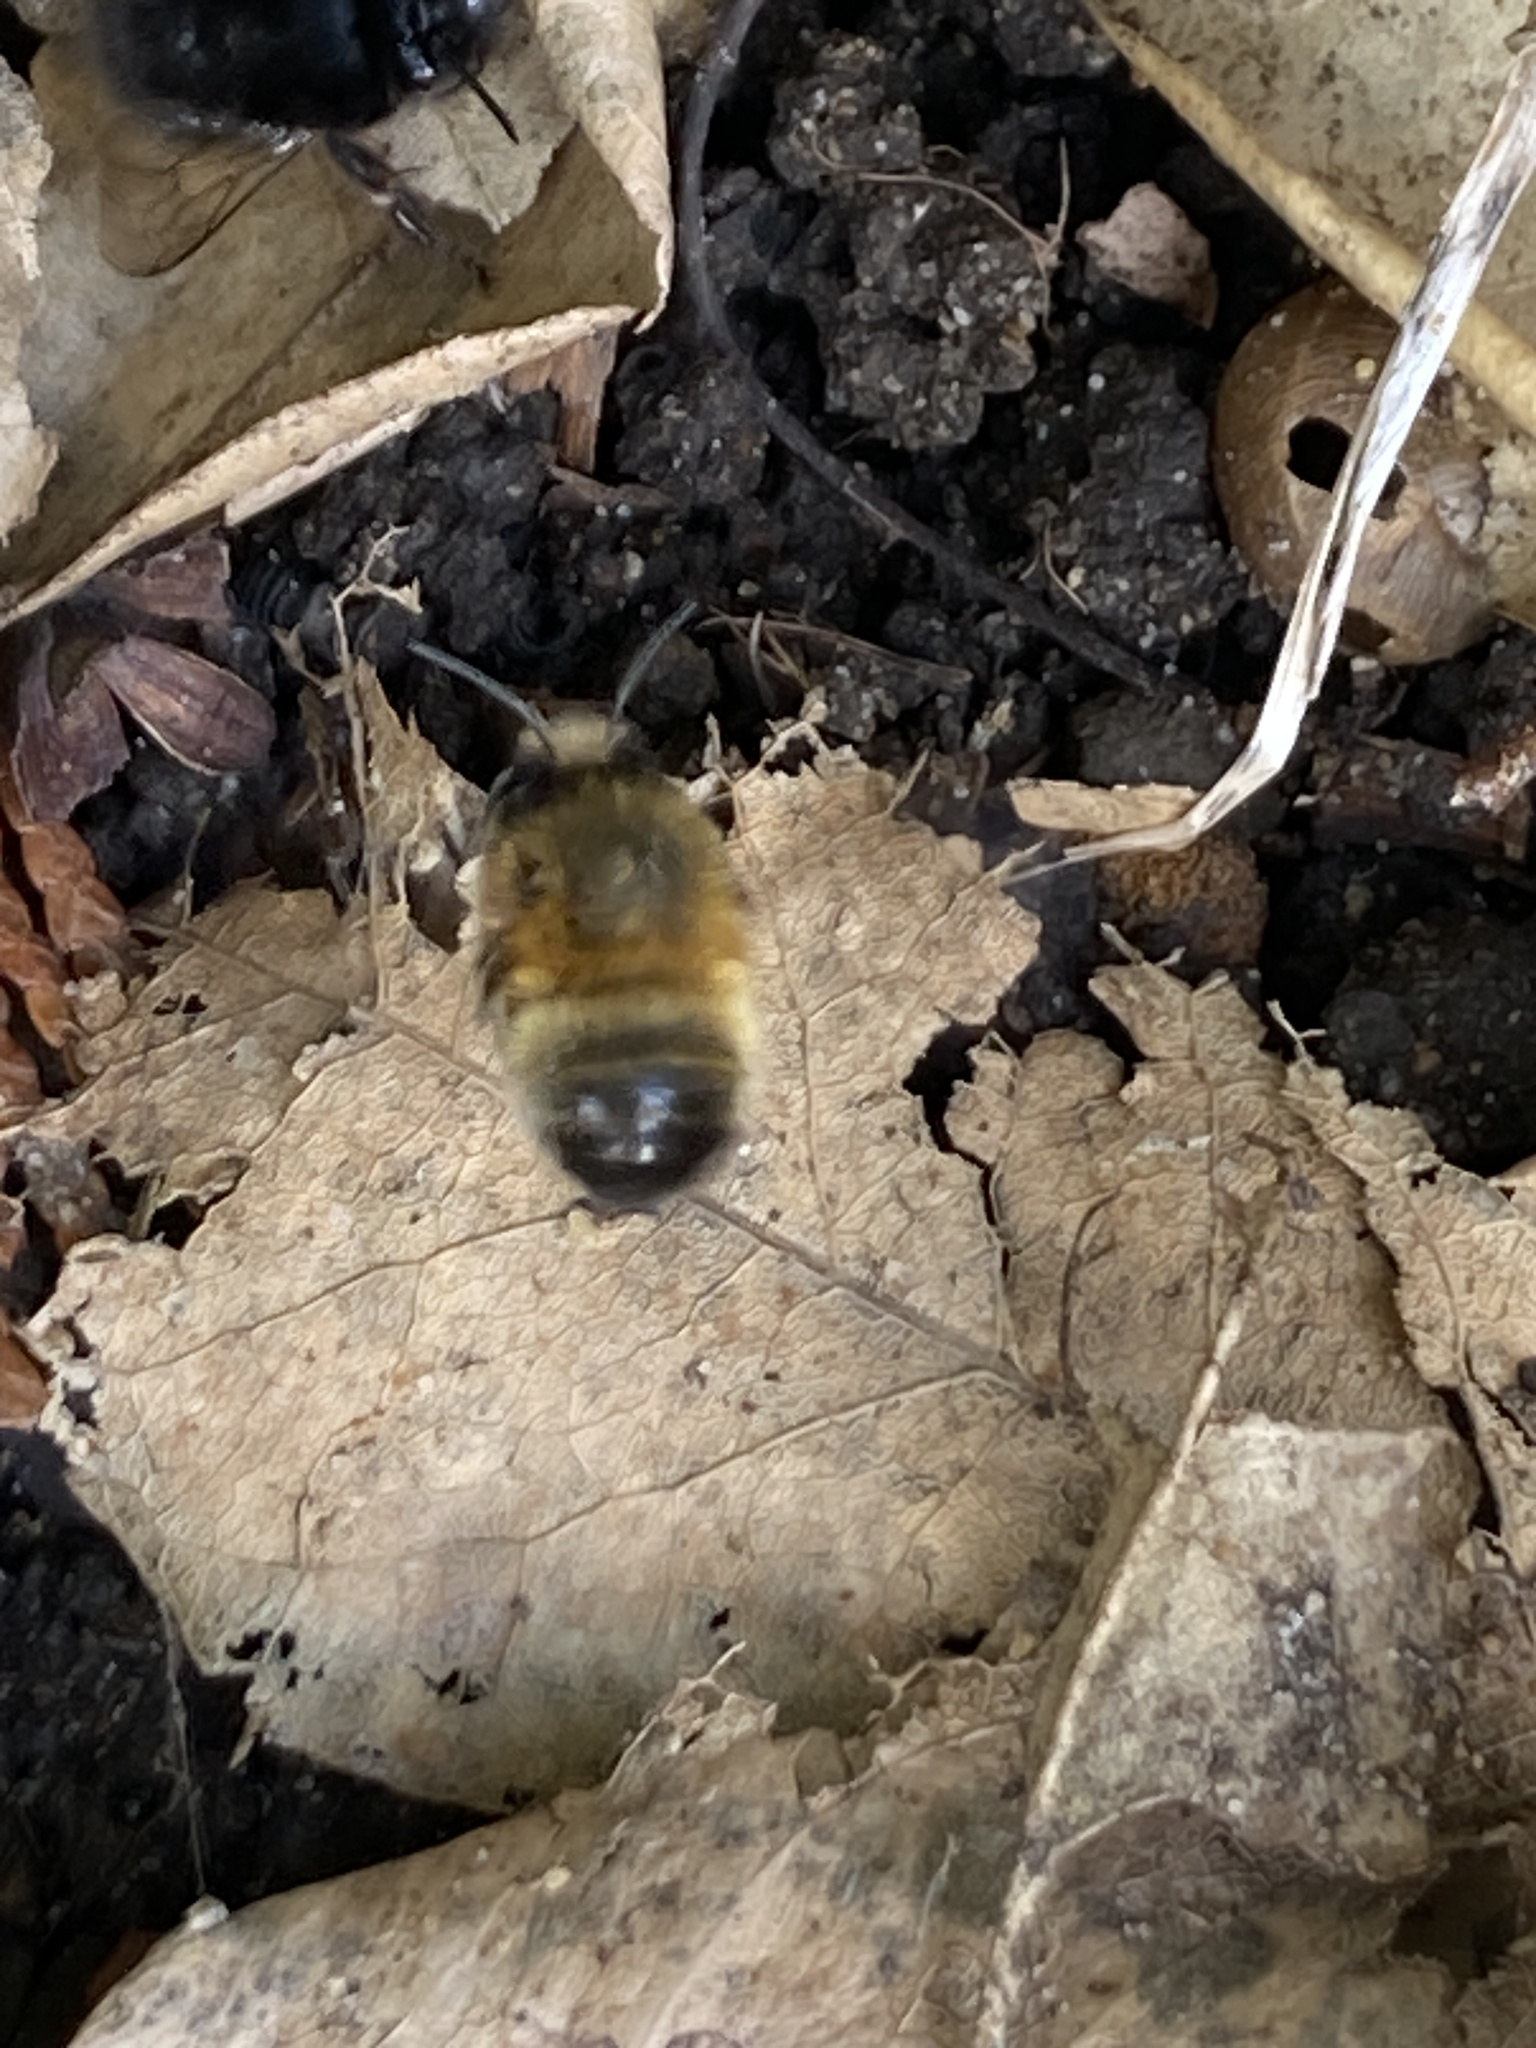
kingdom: Animalia
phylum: Arthropoda
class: Insecta
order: Hymenoptera
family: Apidae
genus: Anthophora
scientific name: Anthophora plumipes
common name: Hairy-footed flower bee
